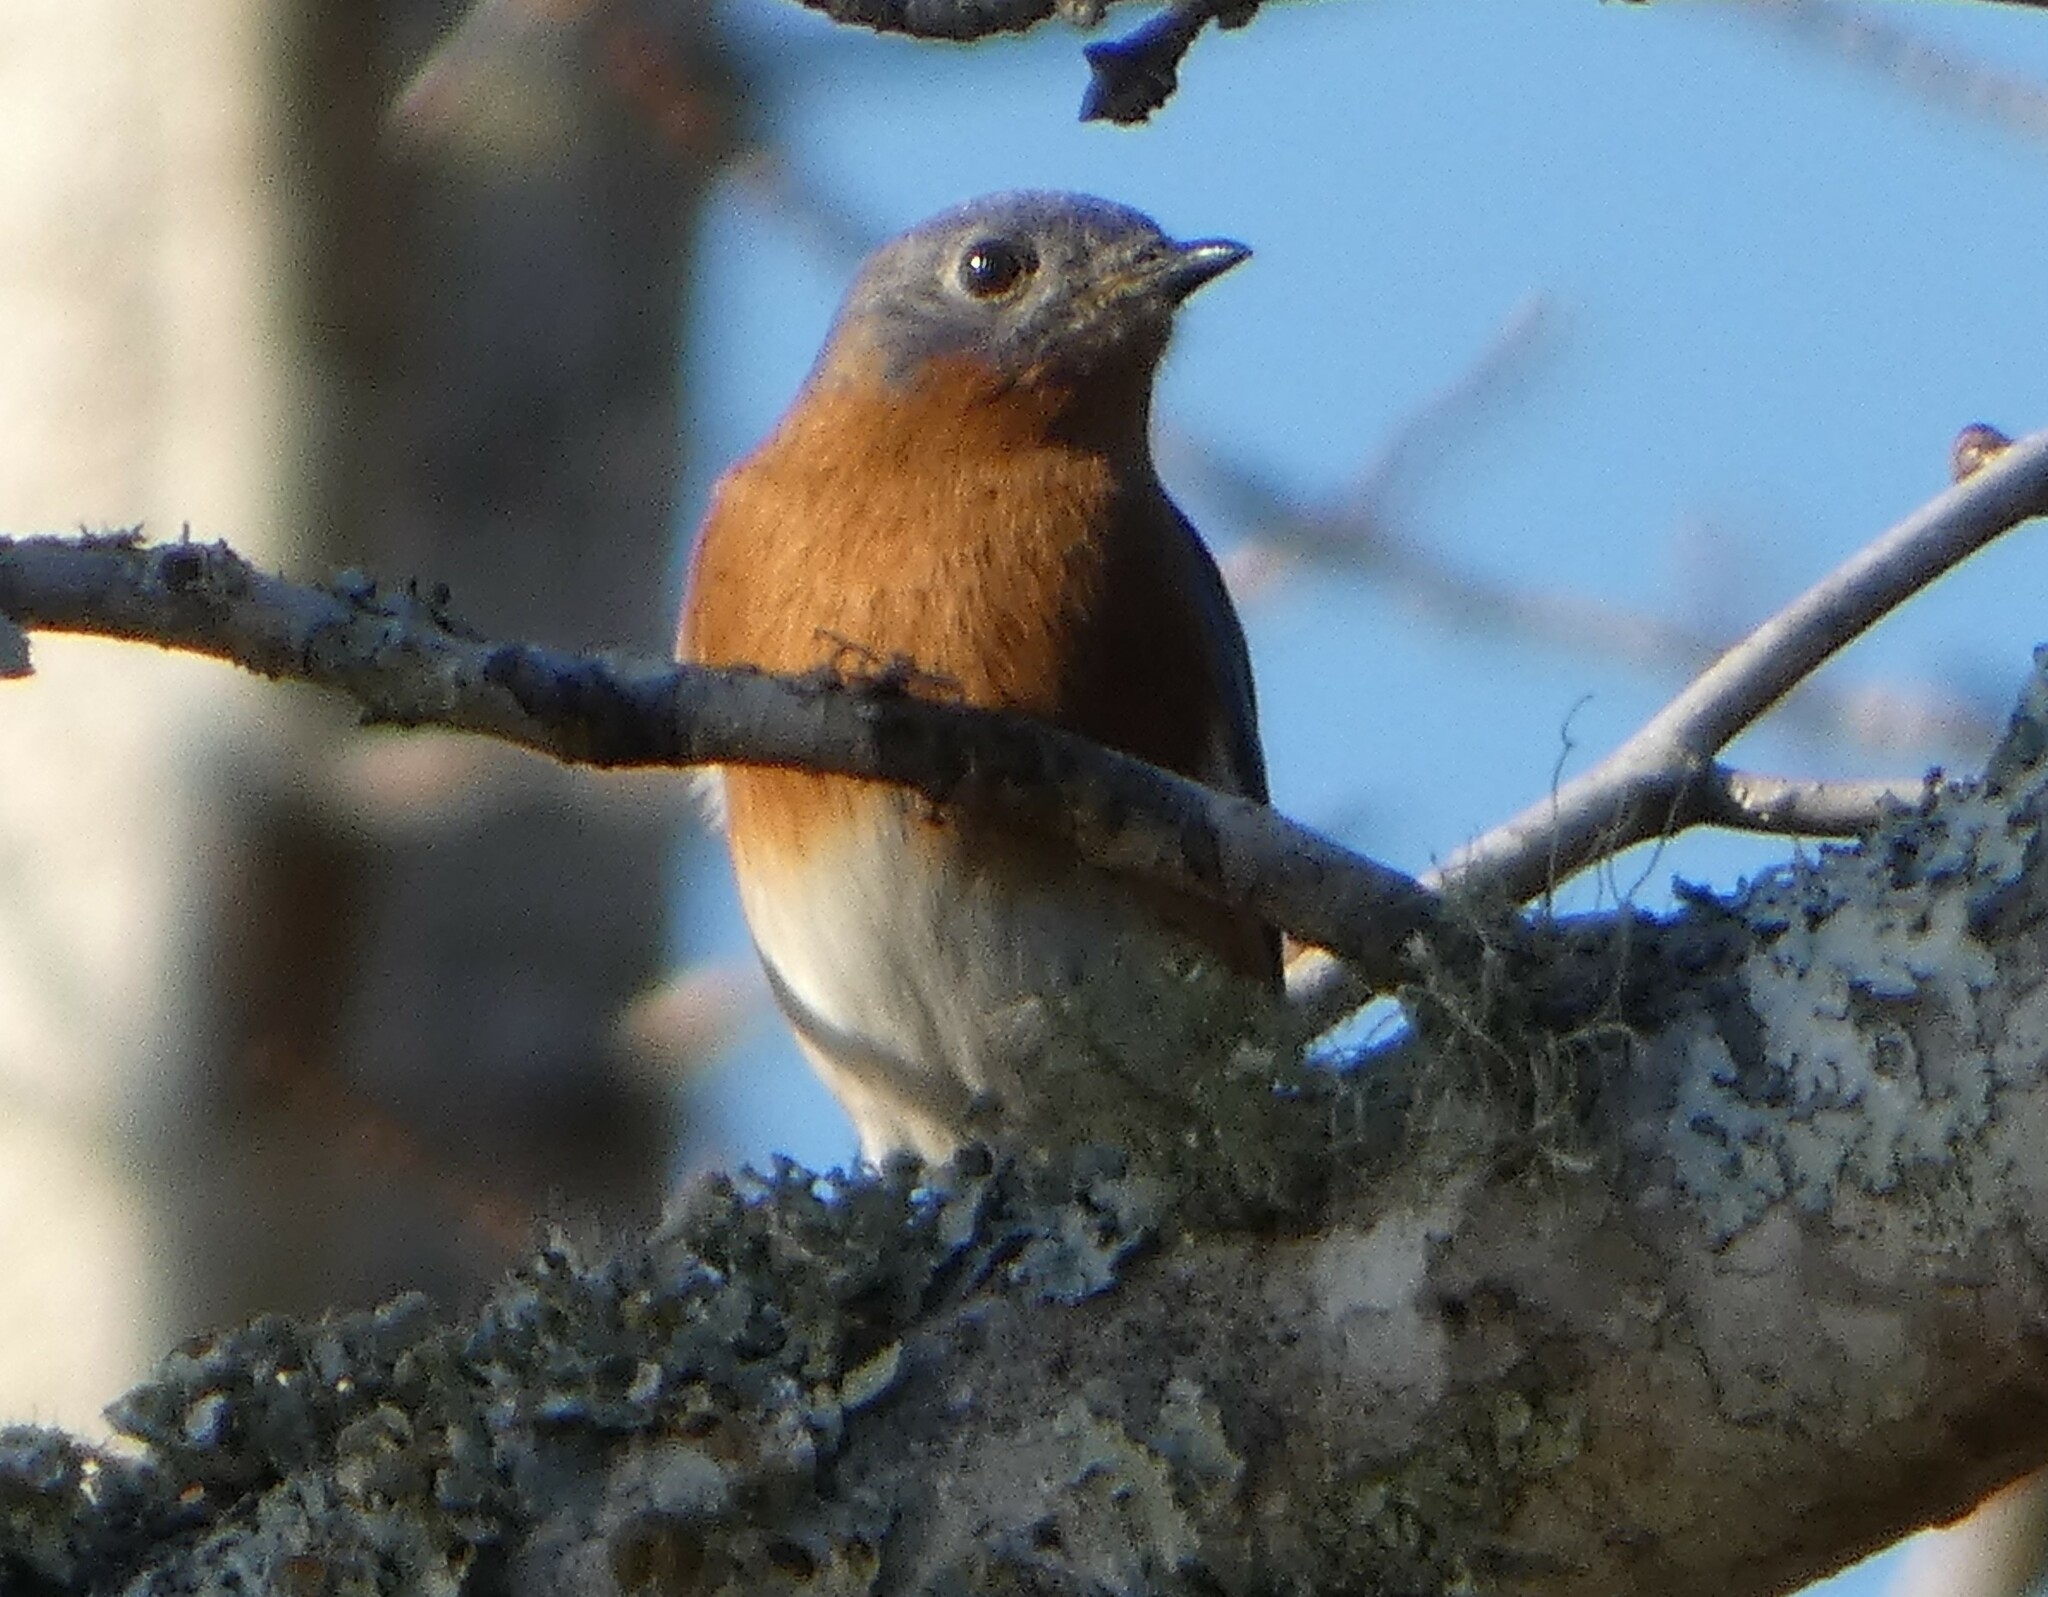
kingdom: Animalia
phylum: Chordata
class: Aves
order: Passeriformes
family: Turdidae
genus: Sialia
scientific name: Sialia sialis
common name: Eastern bluebird
